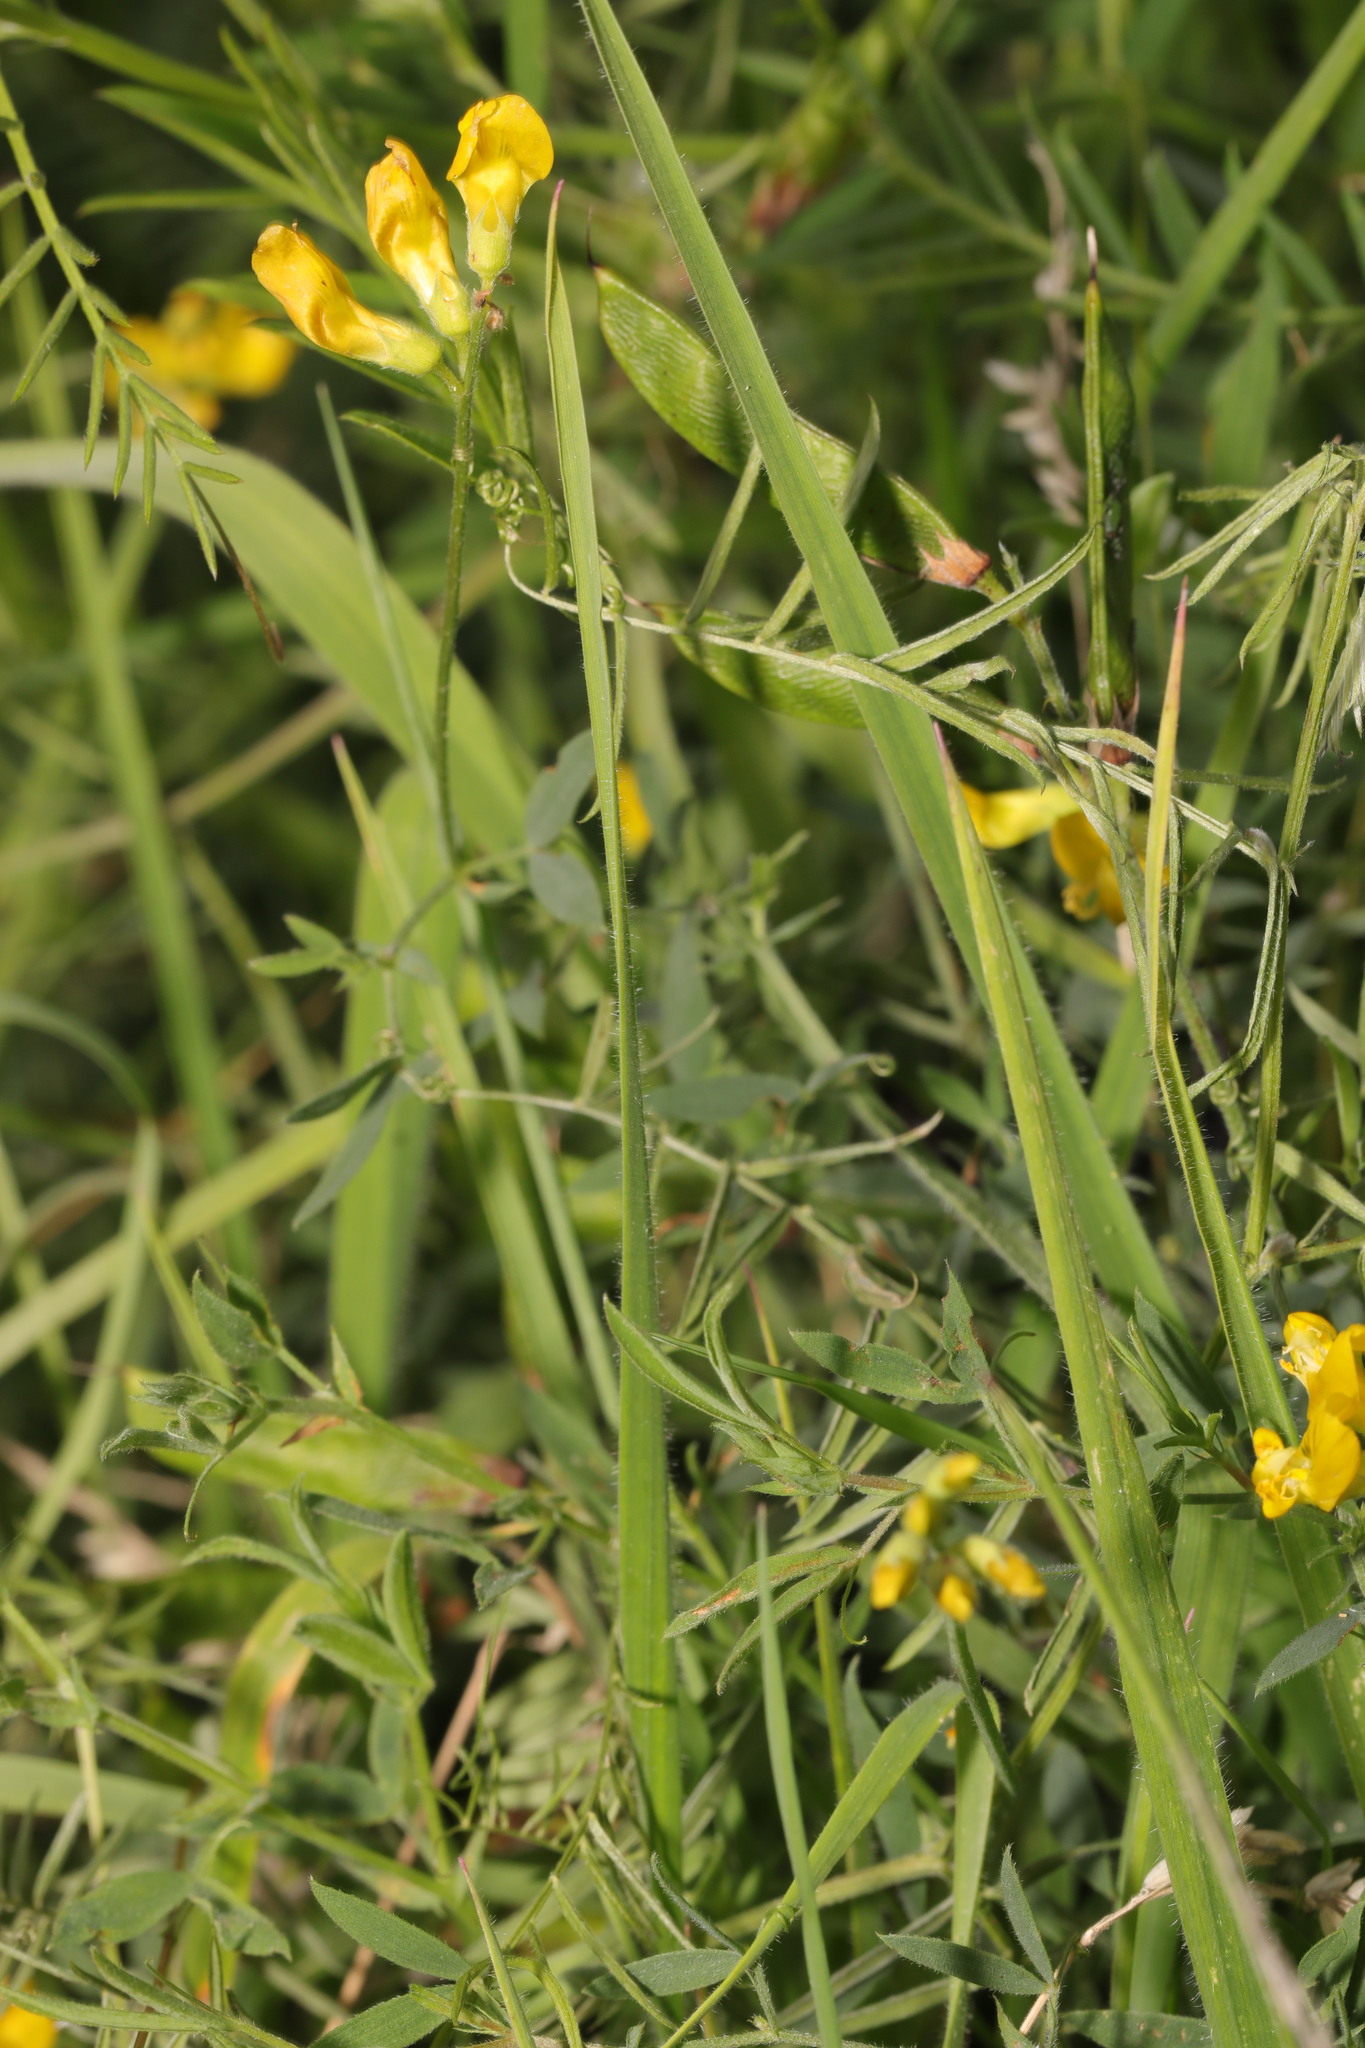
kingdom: Plantae
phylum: Tracheophyta
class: Magnoliopsida
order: Fabales
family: Fabaceae
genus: Lathyrus
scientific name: Lathyrus pratensis
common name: Meadow vetchling
